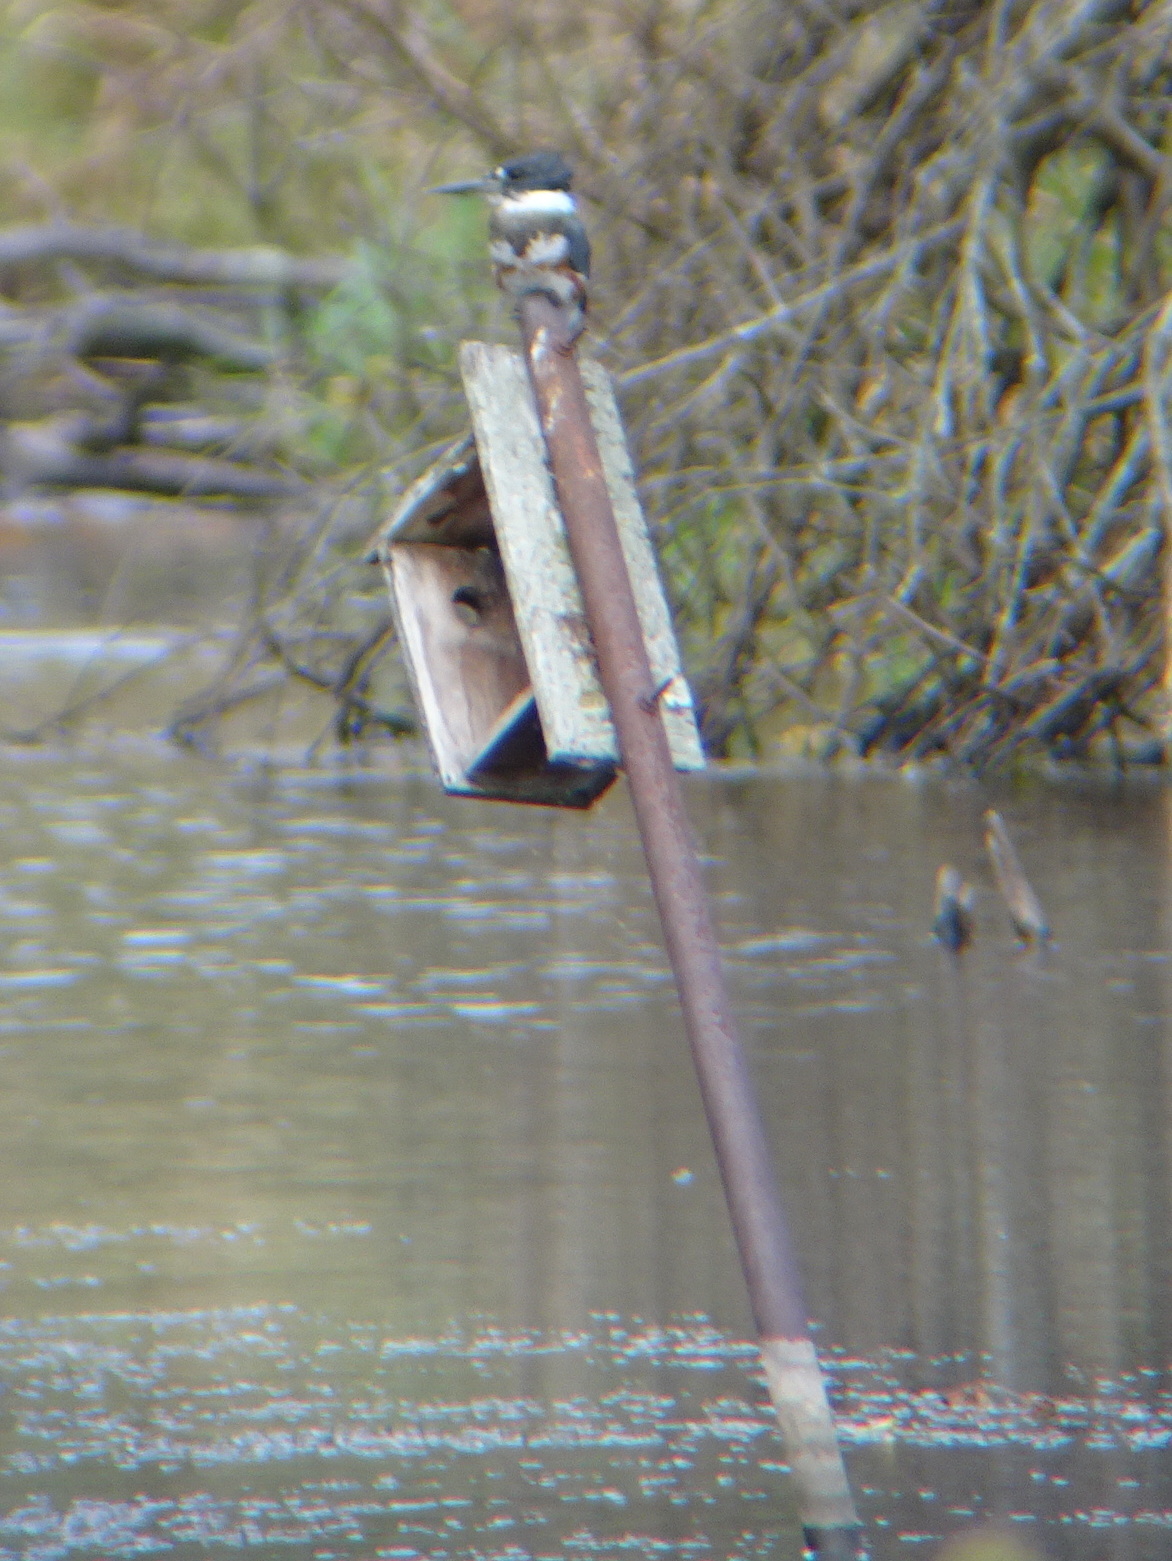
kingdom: Animalia
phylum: Chordata
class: Aves
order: Coraciiformes
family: Alcedinidae
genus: Megaceryle
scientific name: Megaceryle alcyon
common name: Belted kingfisher
